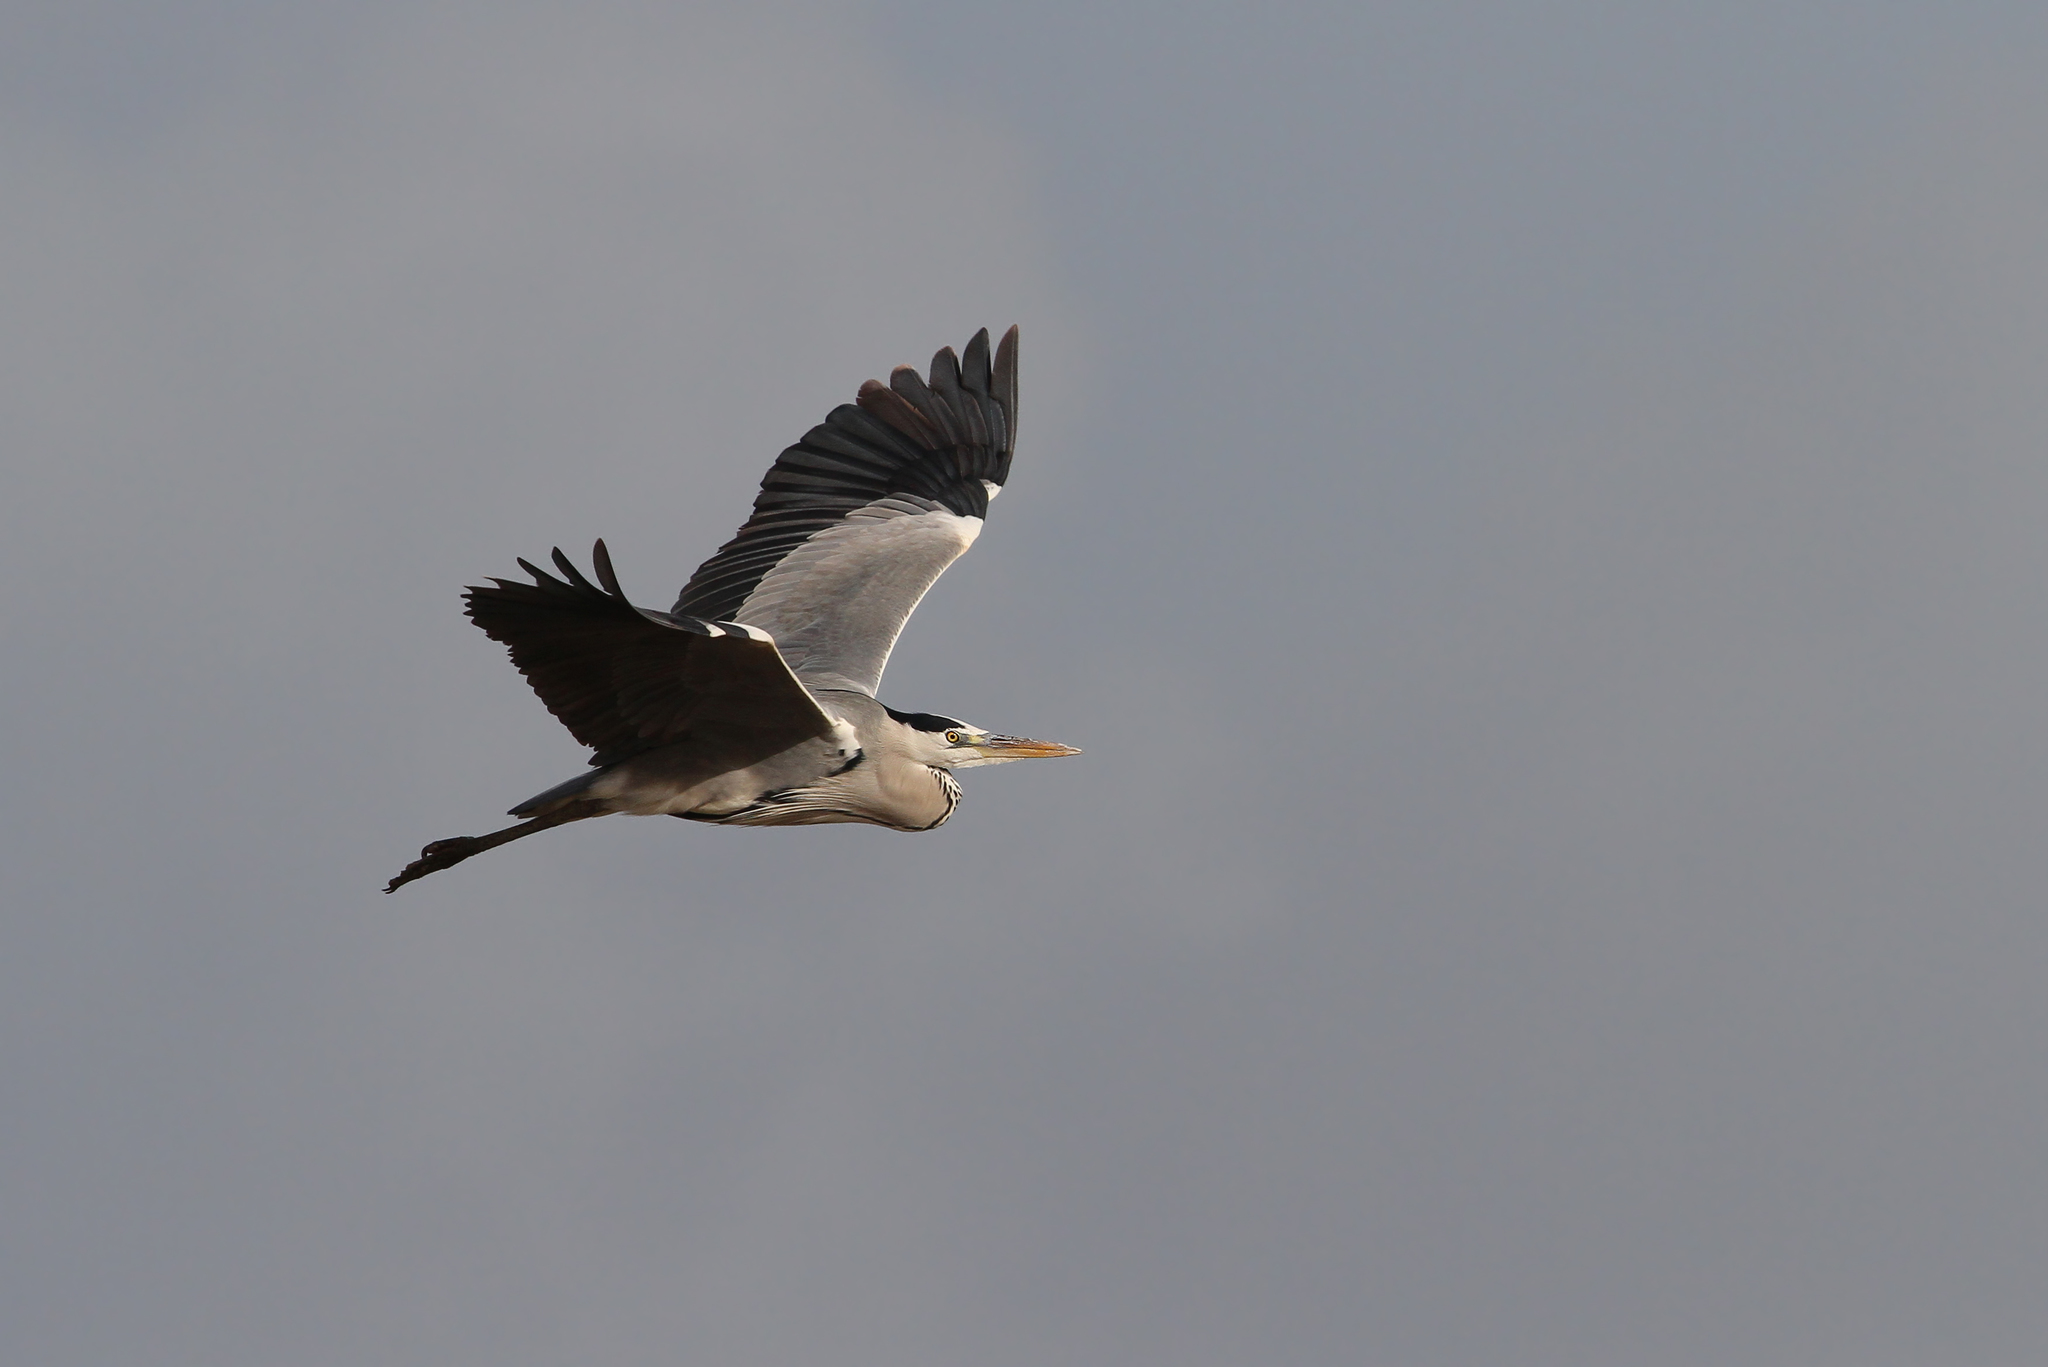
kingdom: Animalia
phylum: Chordata
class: Aves
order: Pelecaniformes
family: Ardeidae
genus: Ardea
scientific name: Ardea cinerea
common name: Grey heron
